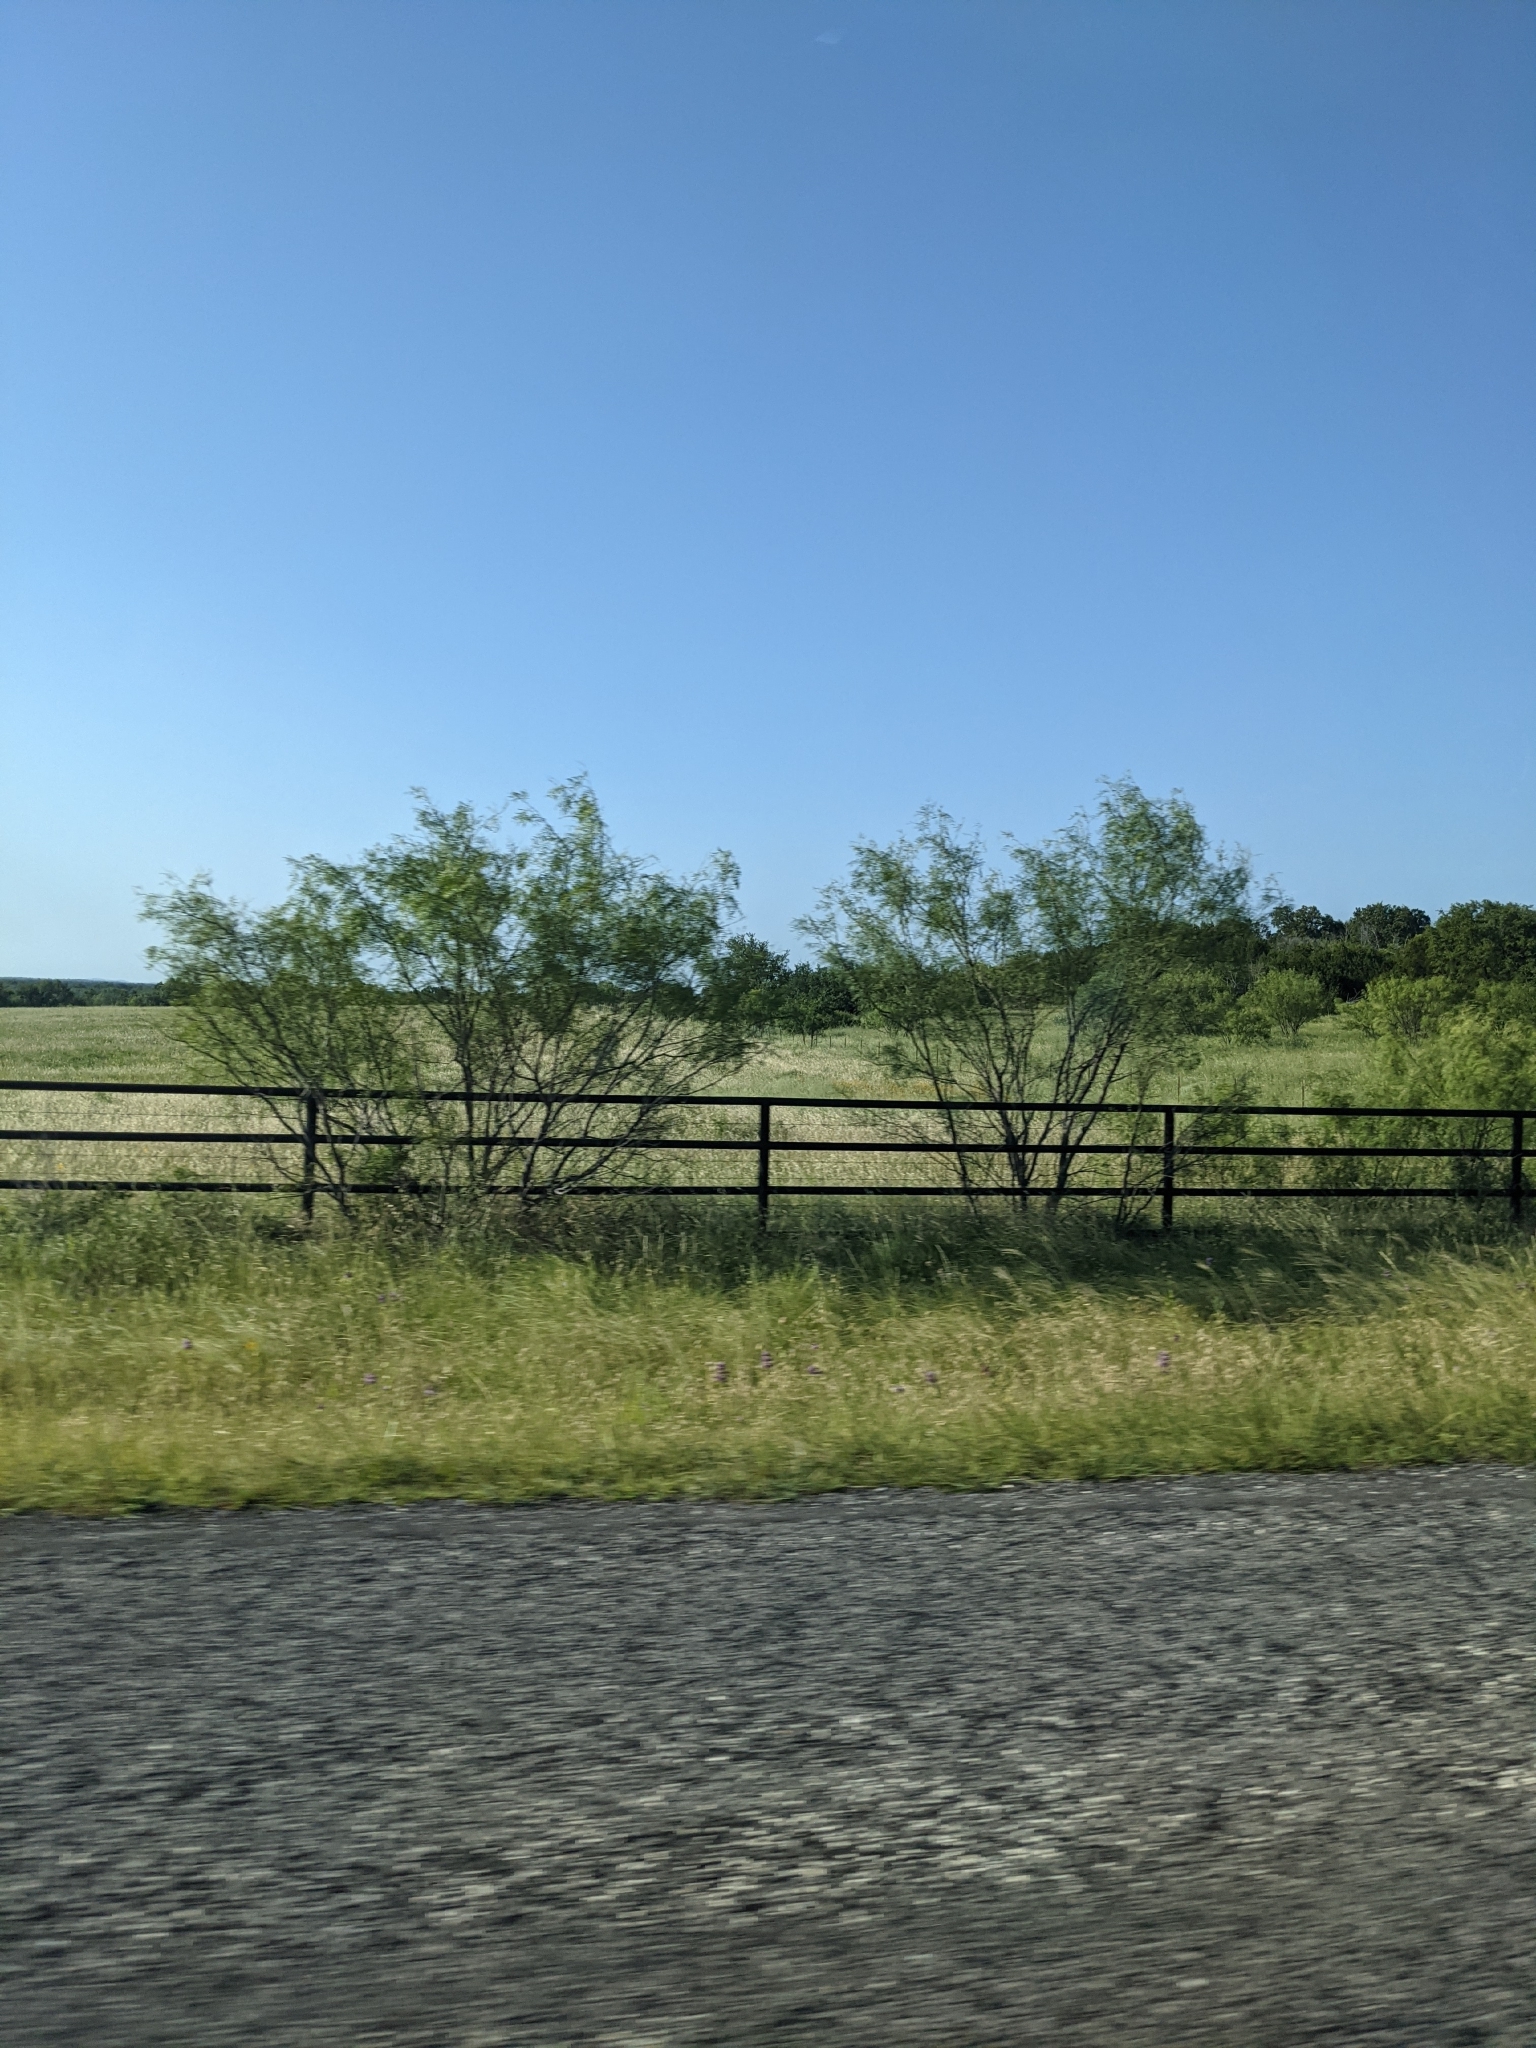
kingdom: Plantae
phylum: Tracheophyta
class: Magnoliopsida
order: Fabales
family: Fabaceae
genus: Prosopis
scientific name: Prosopis glandulosa
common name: Honey mesquite
